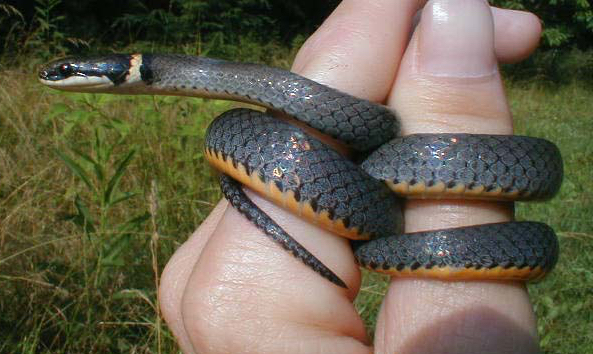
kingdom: Animalia
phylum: Chordata
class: Squamata
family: Colubridae
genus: Diadophis
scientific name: Diadophis punctatus
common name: Ringneck snake
